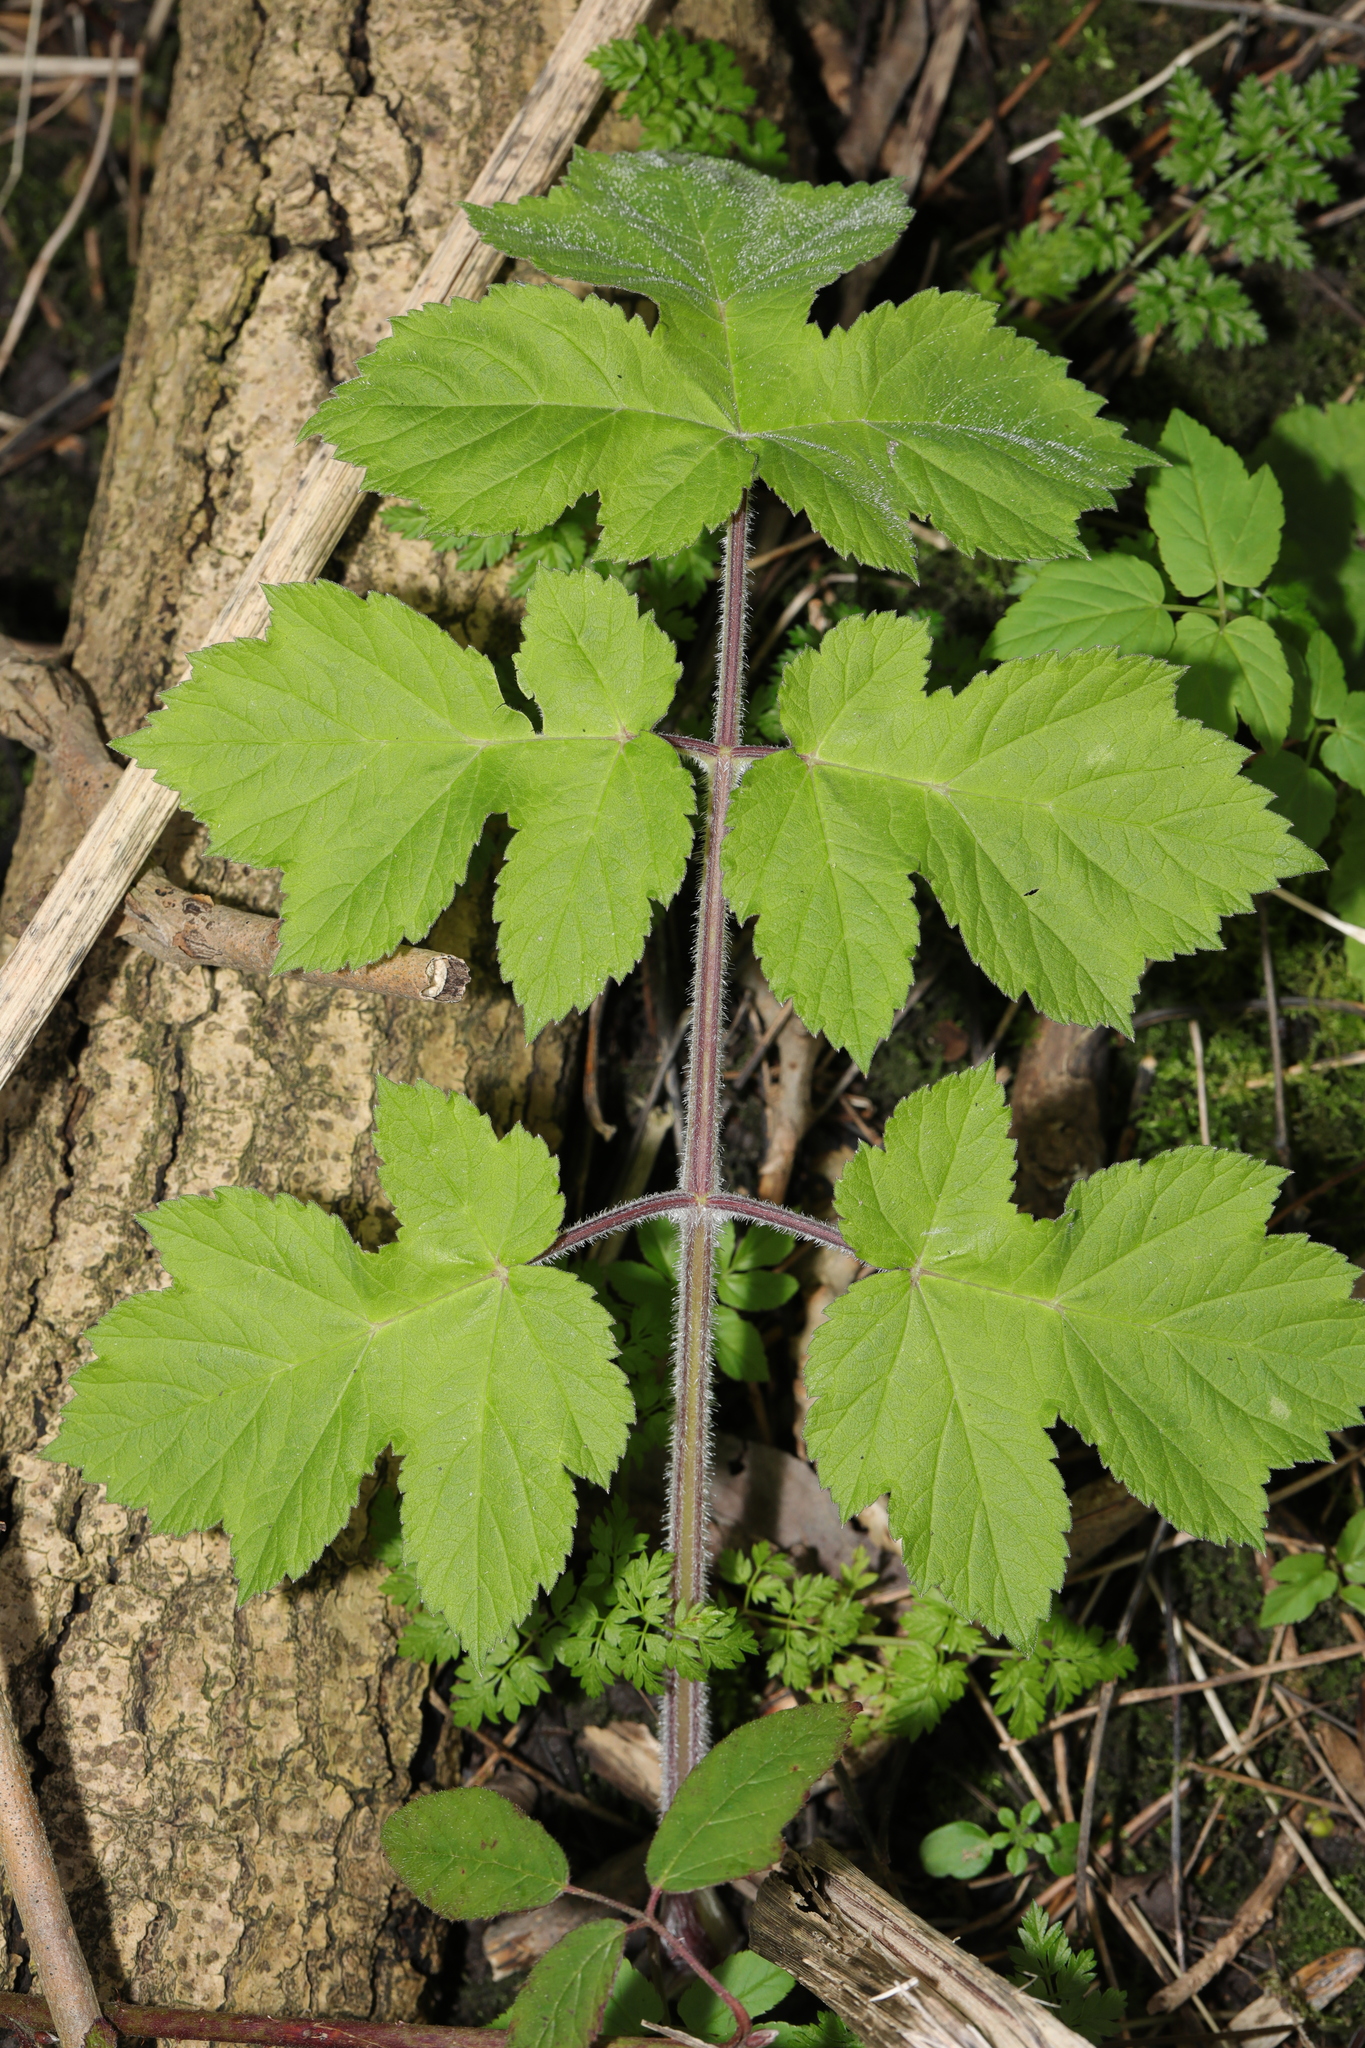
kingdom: Plantae
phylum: Tracheophyta
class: Magnoliopsida
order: Apiales
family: Apiaceae
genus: Heracleum
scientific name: Heracleum sphondylium
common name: Hogweed
